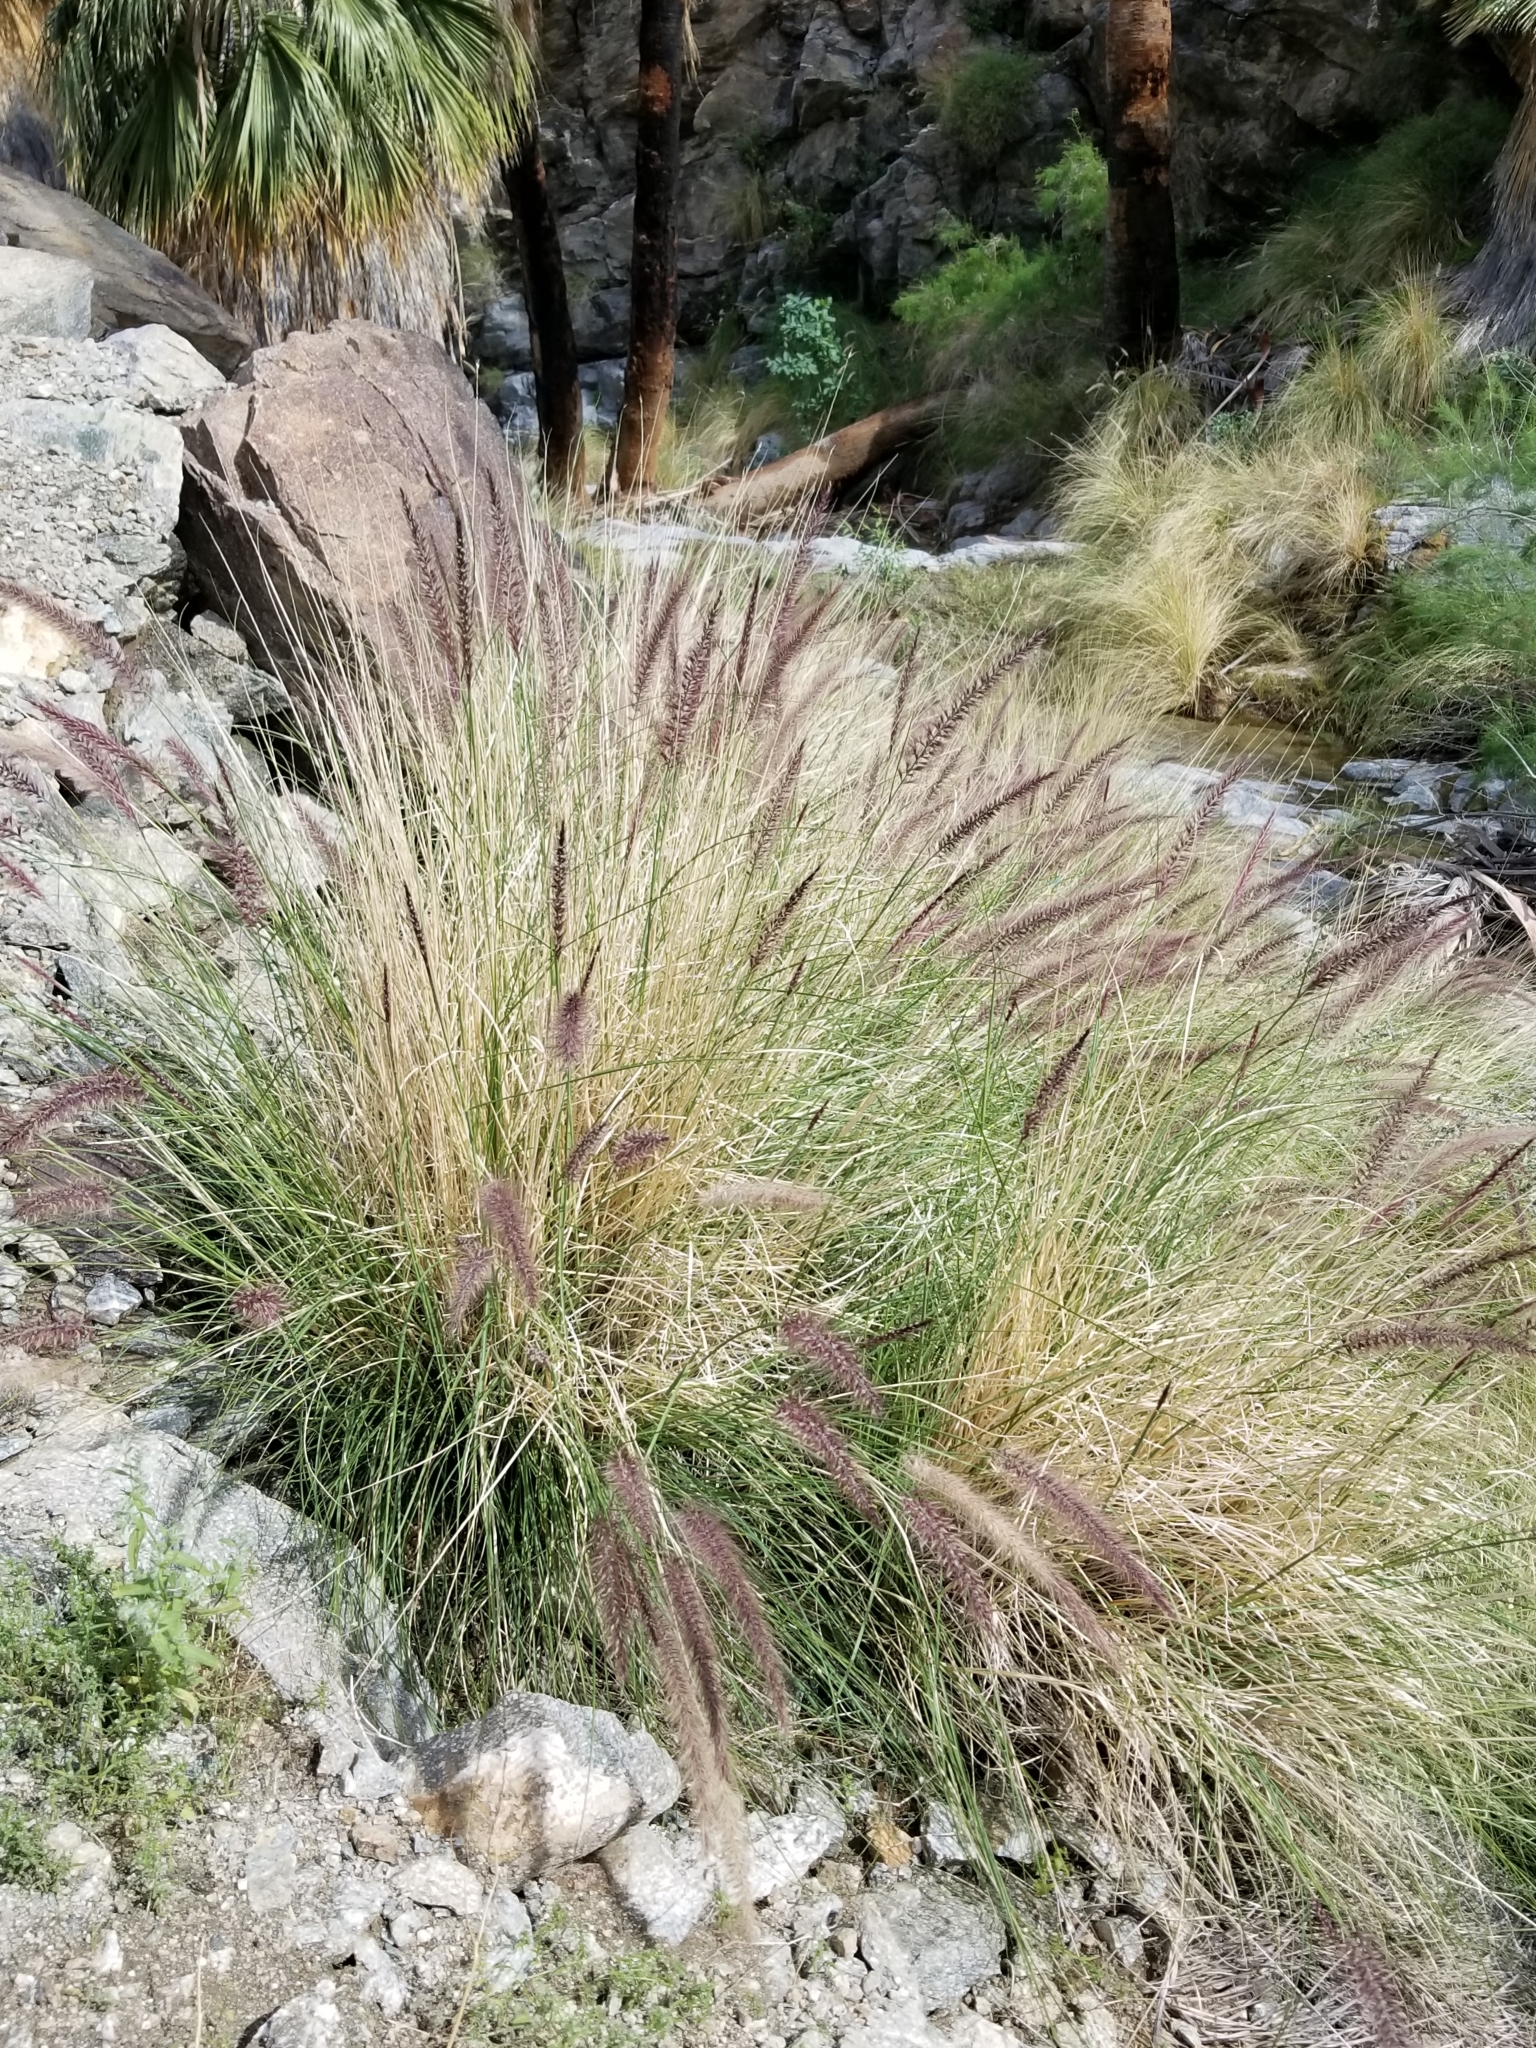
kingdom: Plantae
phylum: Tracheophyta
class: Liliopsida
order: Poales
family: Poaceae
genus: Cenchrus
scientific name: Cenchrus setaceus
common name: Crimson fountaingrass
